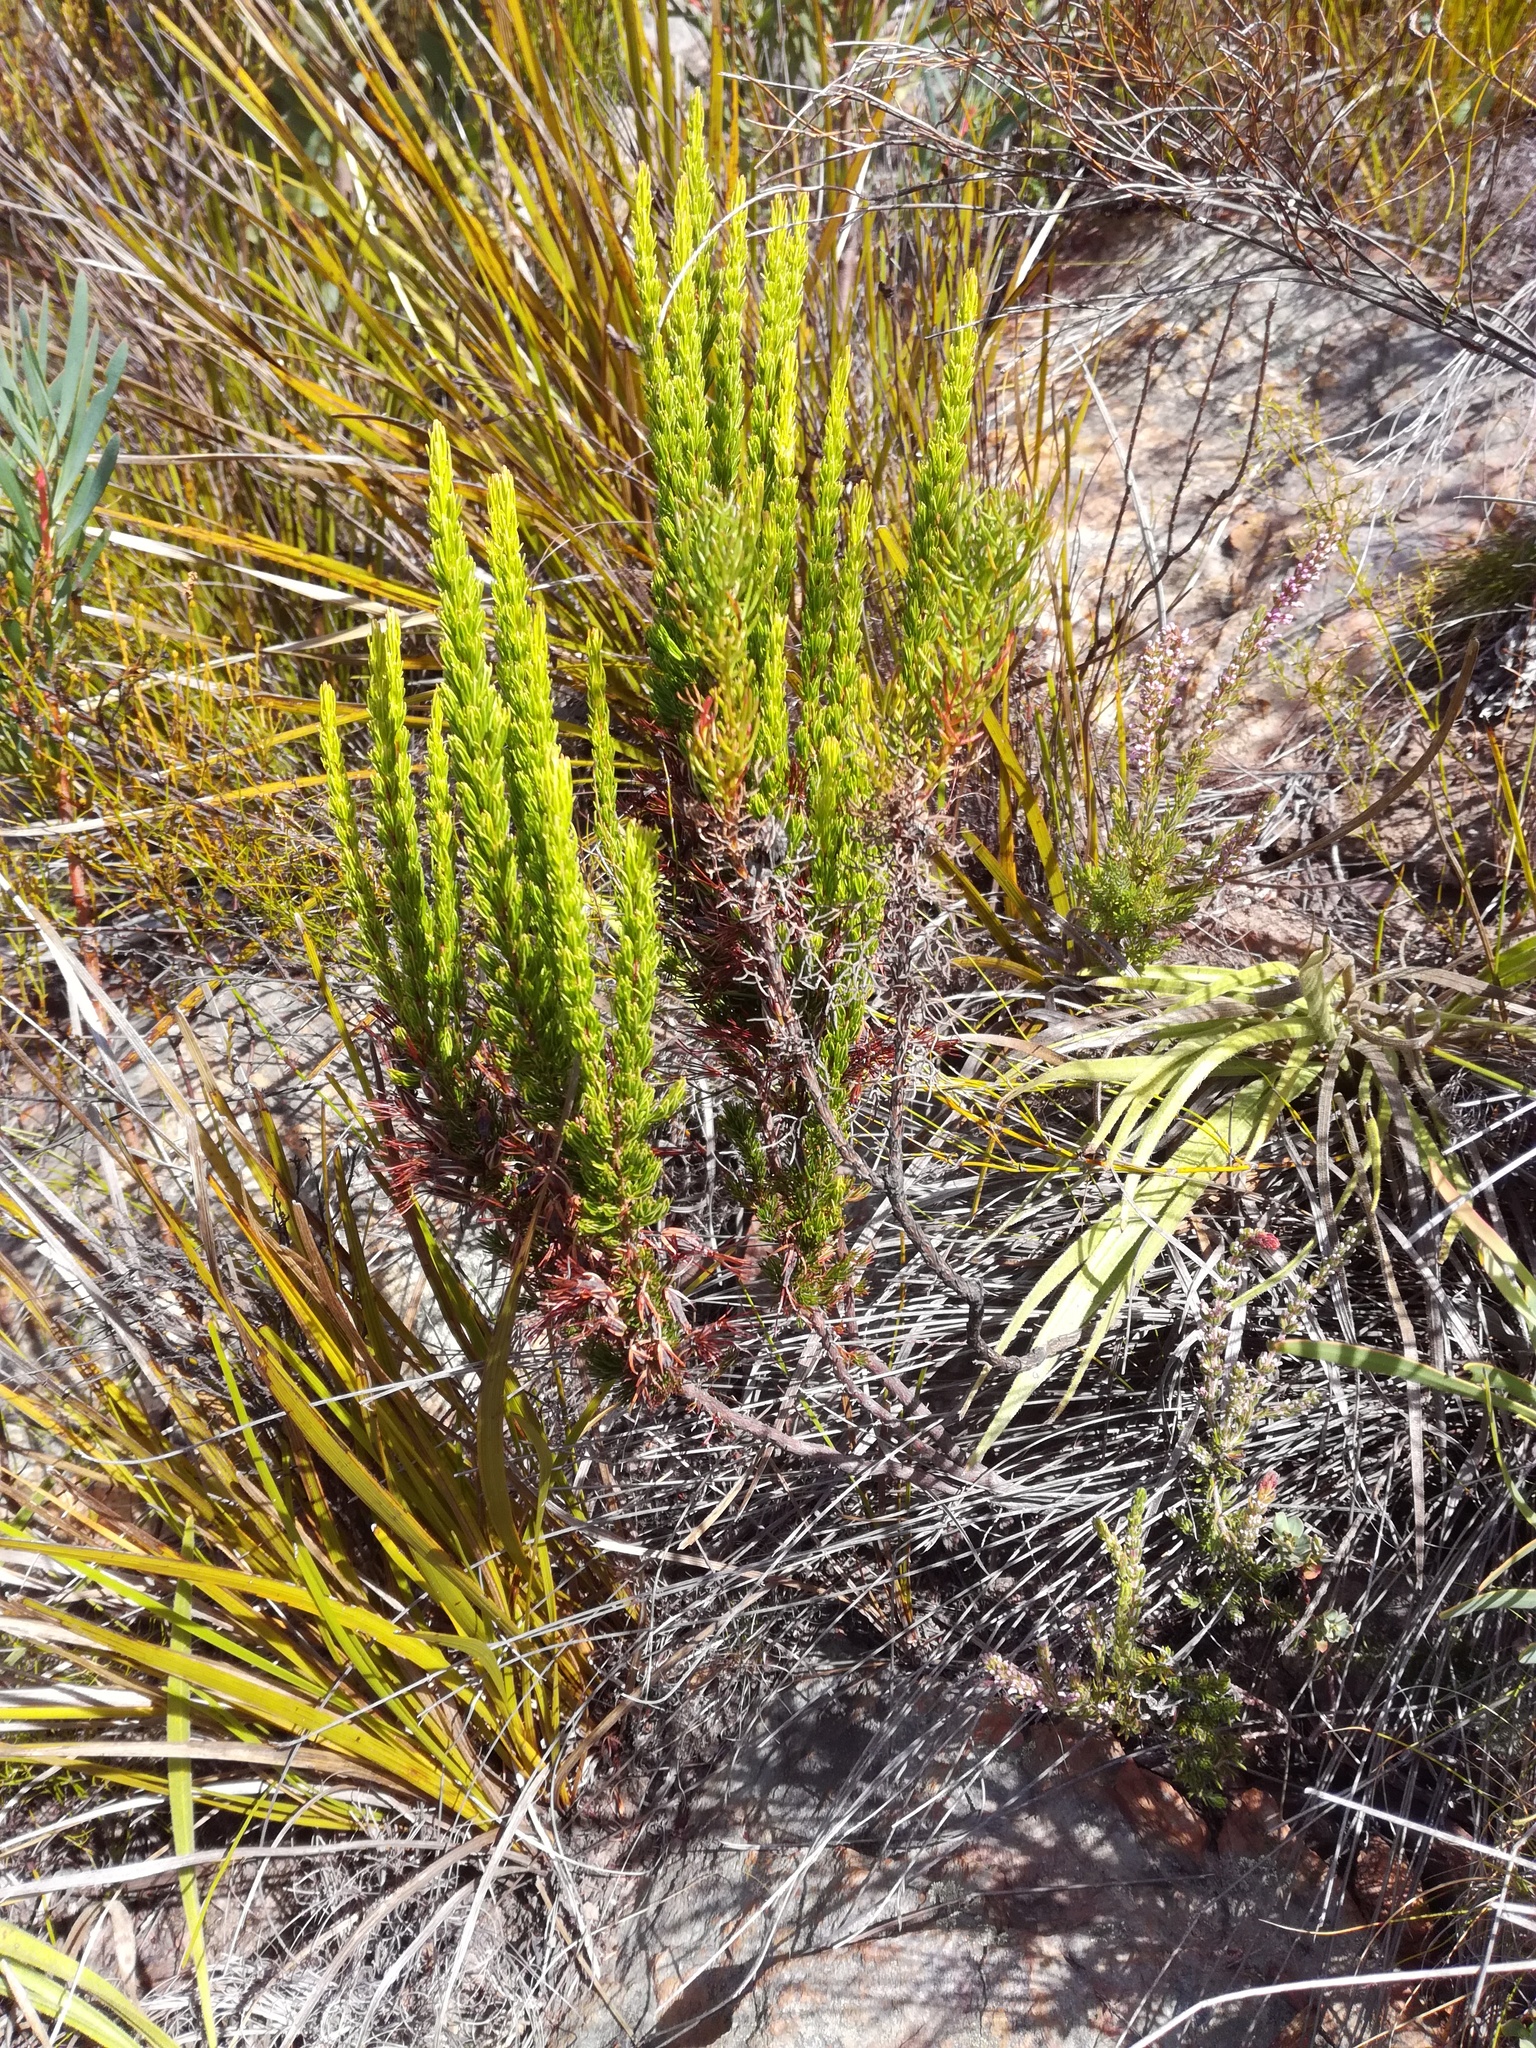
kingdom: Plantae
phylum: Tracheophyta
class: Magnoliopsida
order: Ericales
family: Ericaceae
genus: Erica
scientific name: Erica plukenetii
